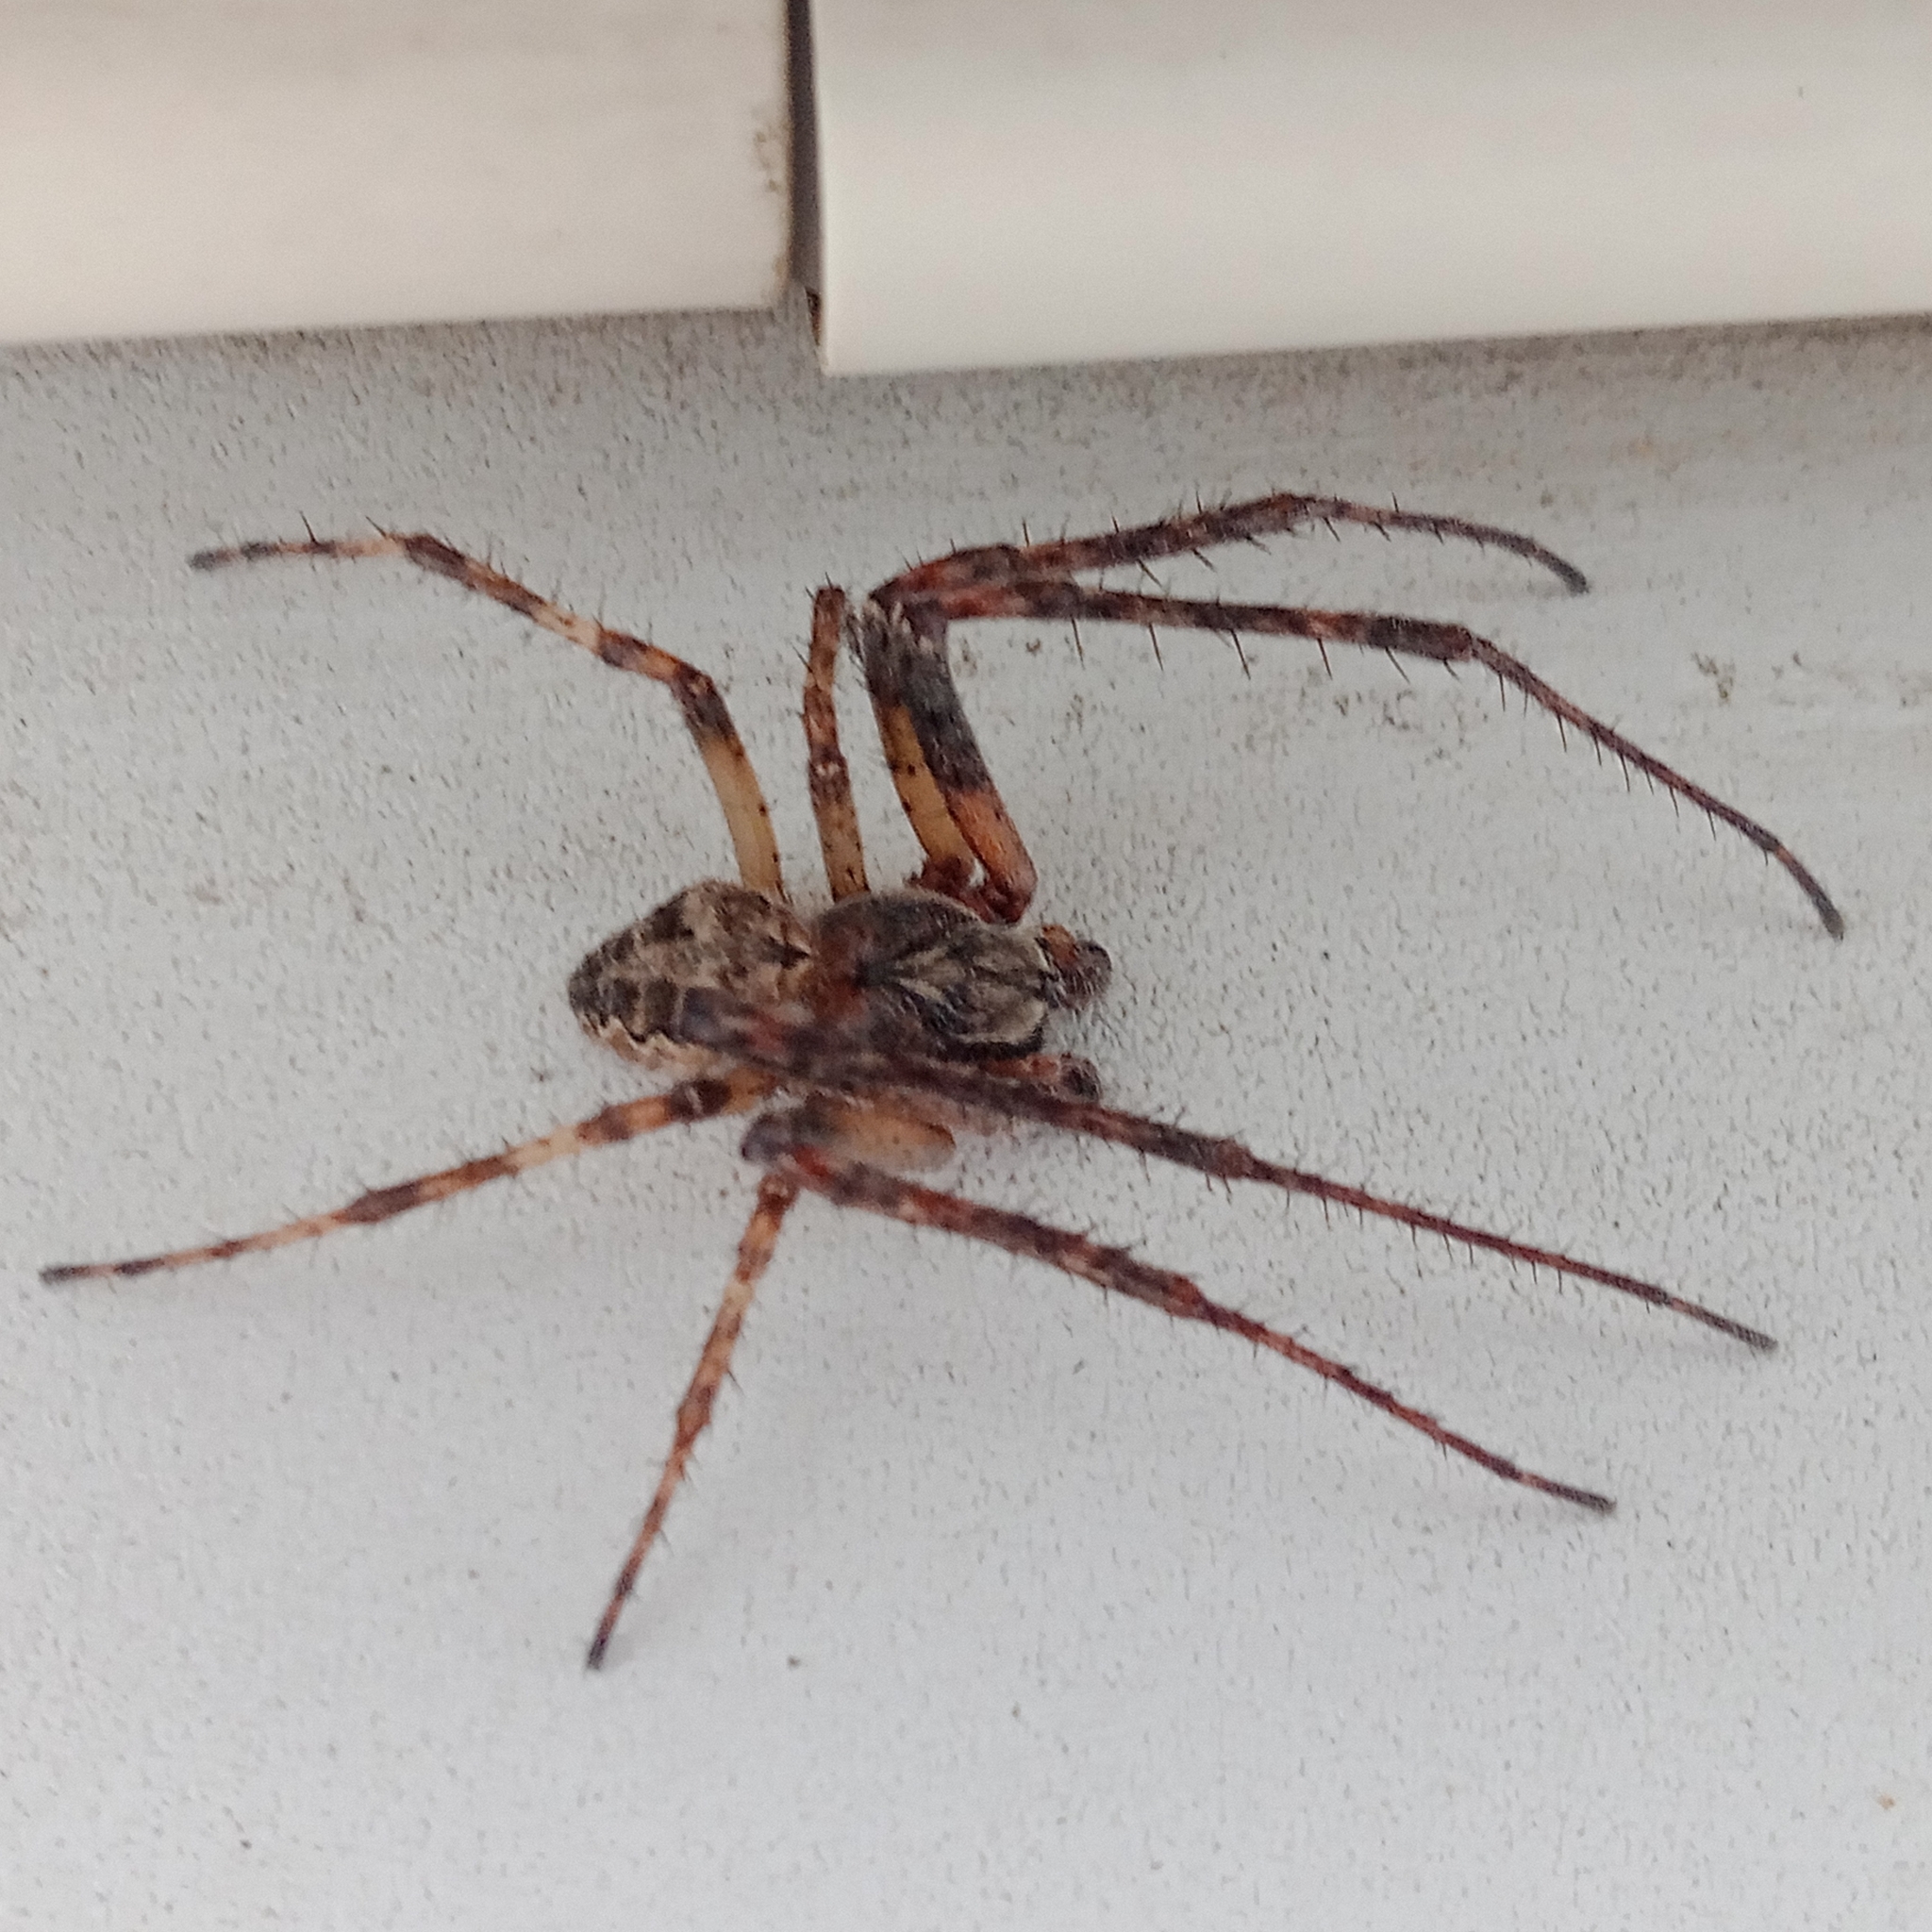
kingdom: Animalia
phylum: Arthropoda
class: Arachnida
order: Araneae
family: Araneidae
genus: Larinioides
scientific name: Larinioides sclopetarius
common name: Bridge orbweaver
